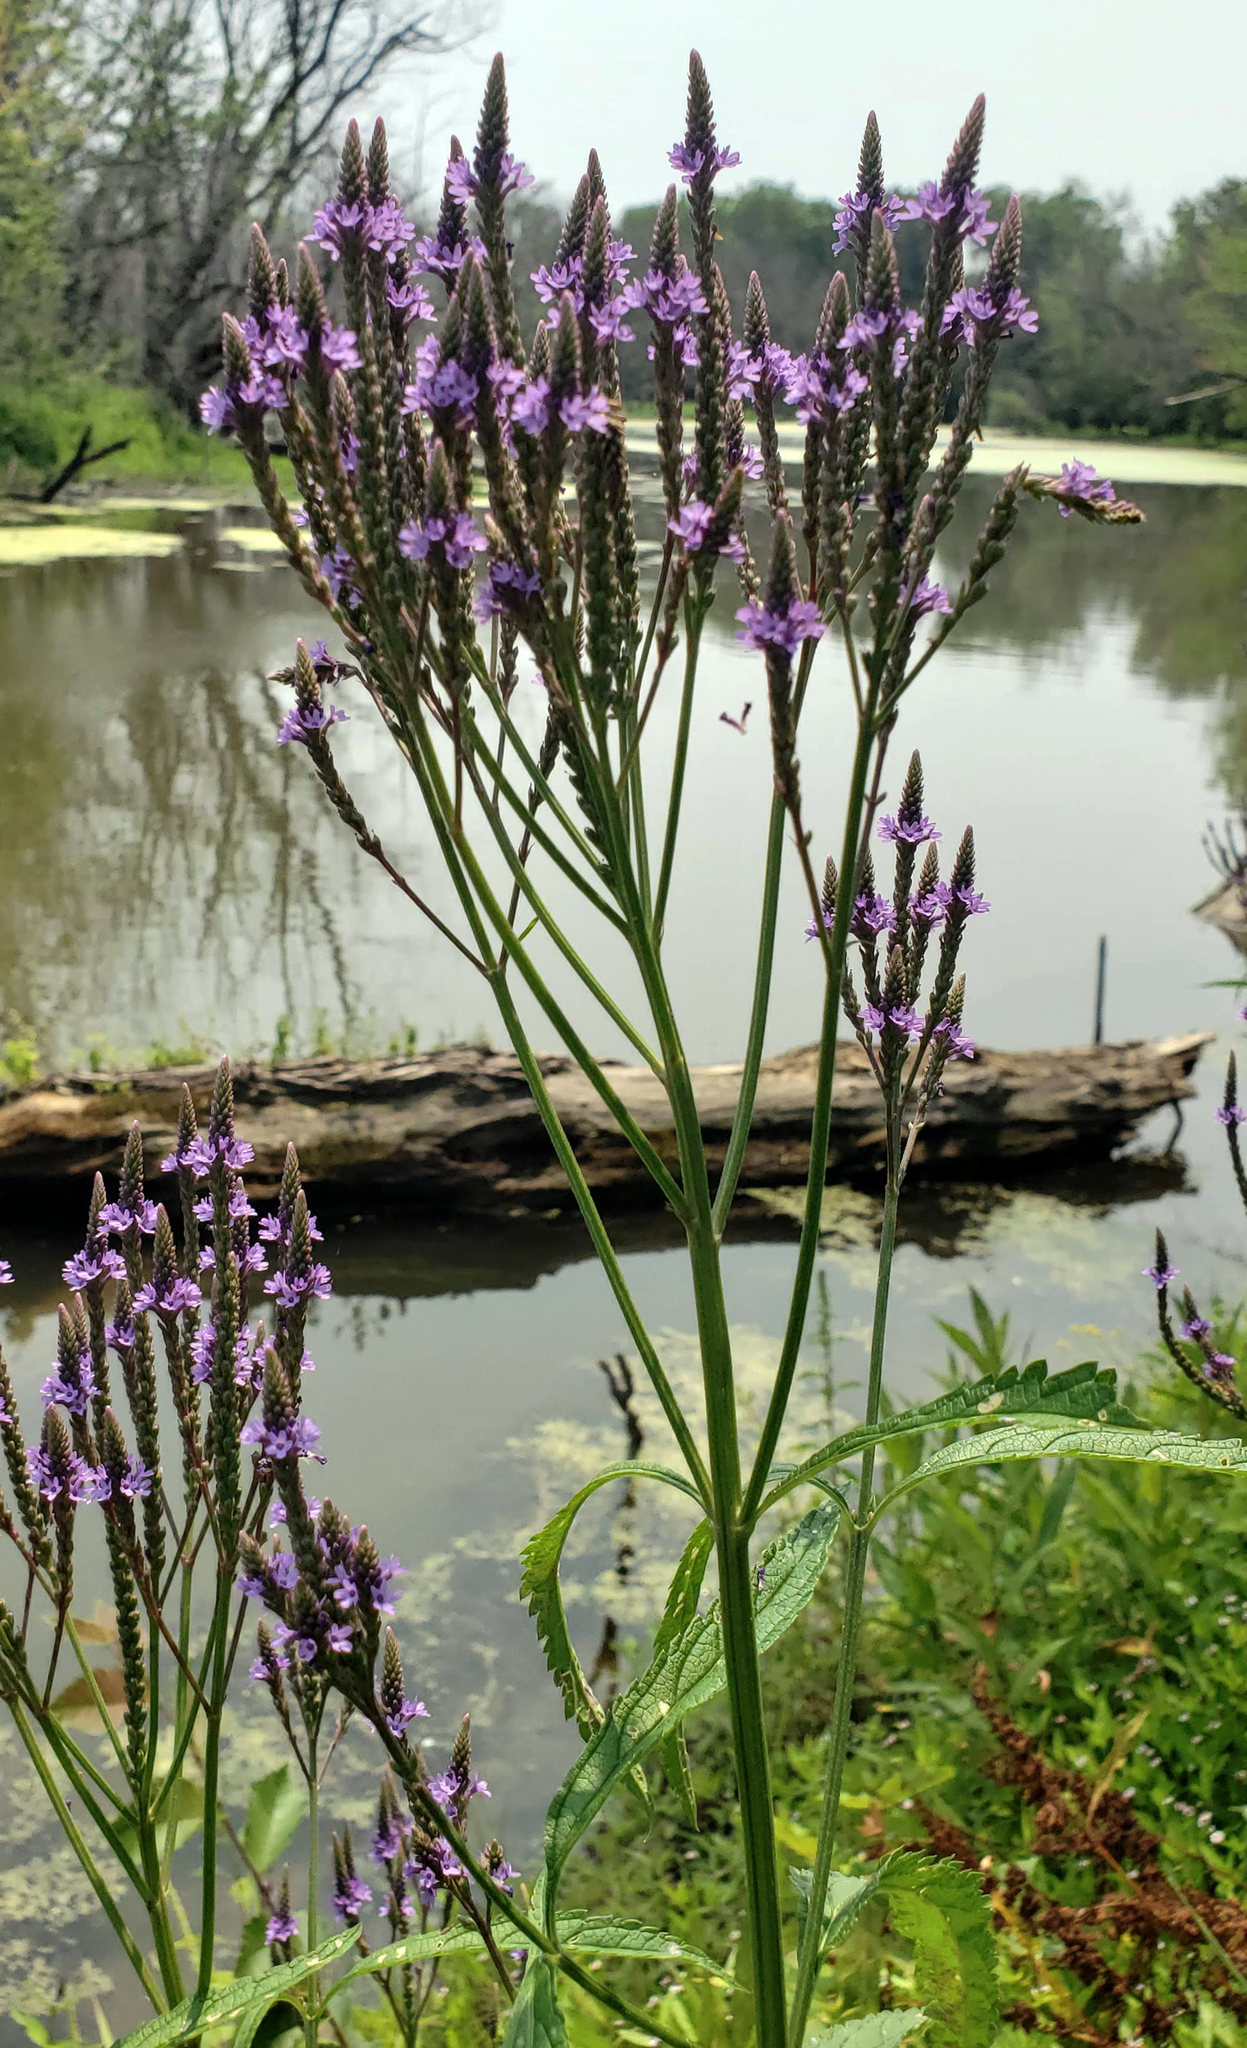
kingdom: Plantae
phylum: Tracheophyta
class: Magnoliopsida
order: Lamiales
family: Verbenaceae
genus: Verbena
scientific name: Verbena hastata
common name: American blue vervain
